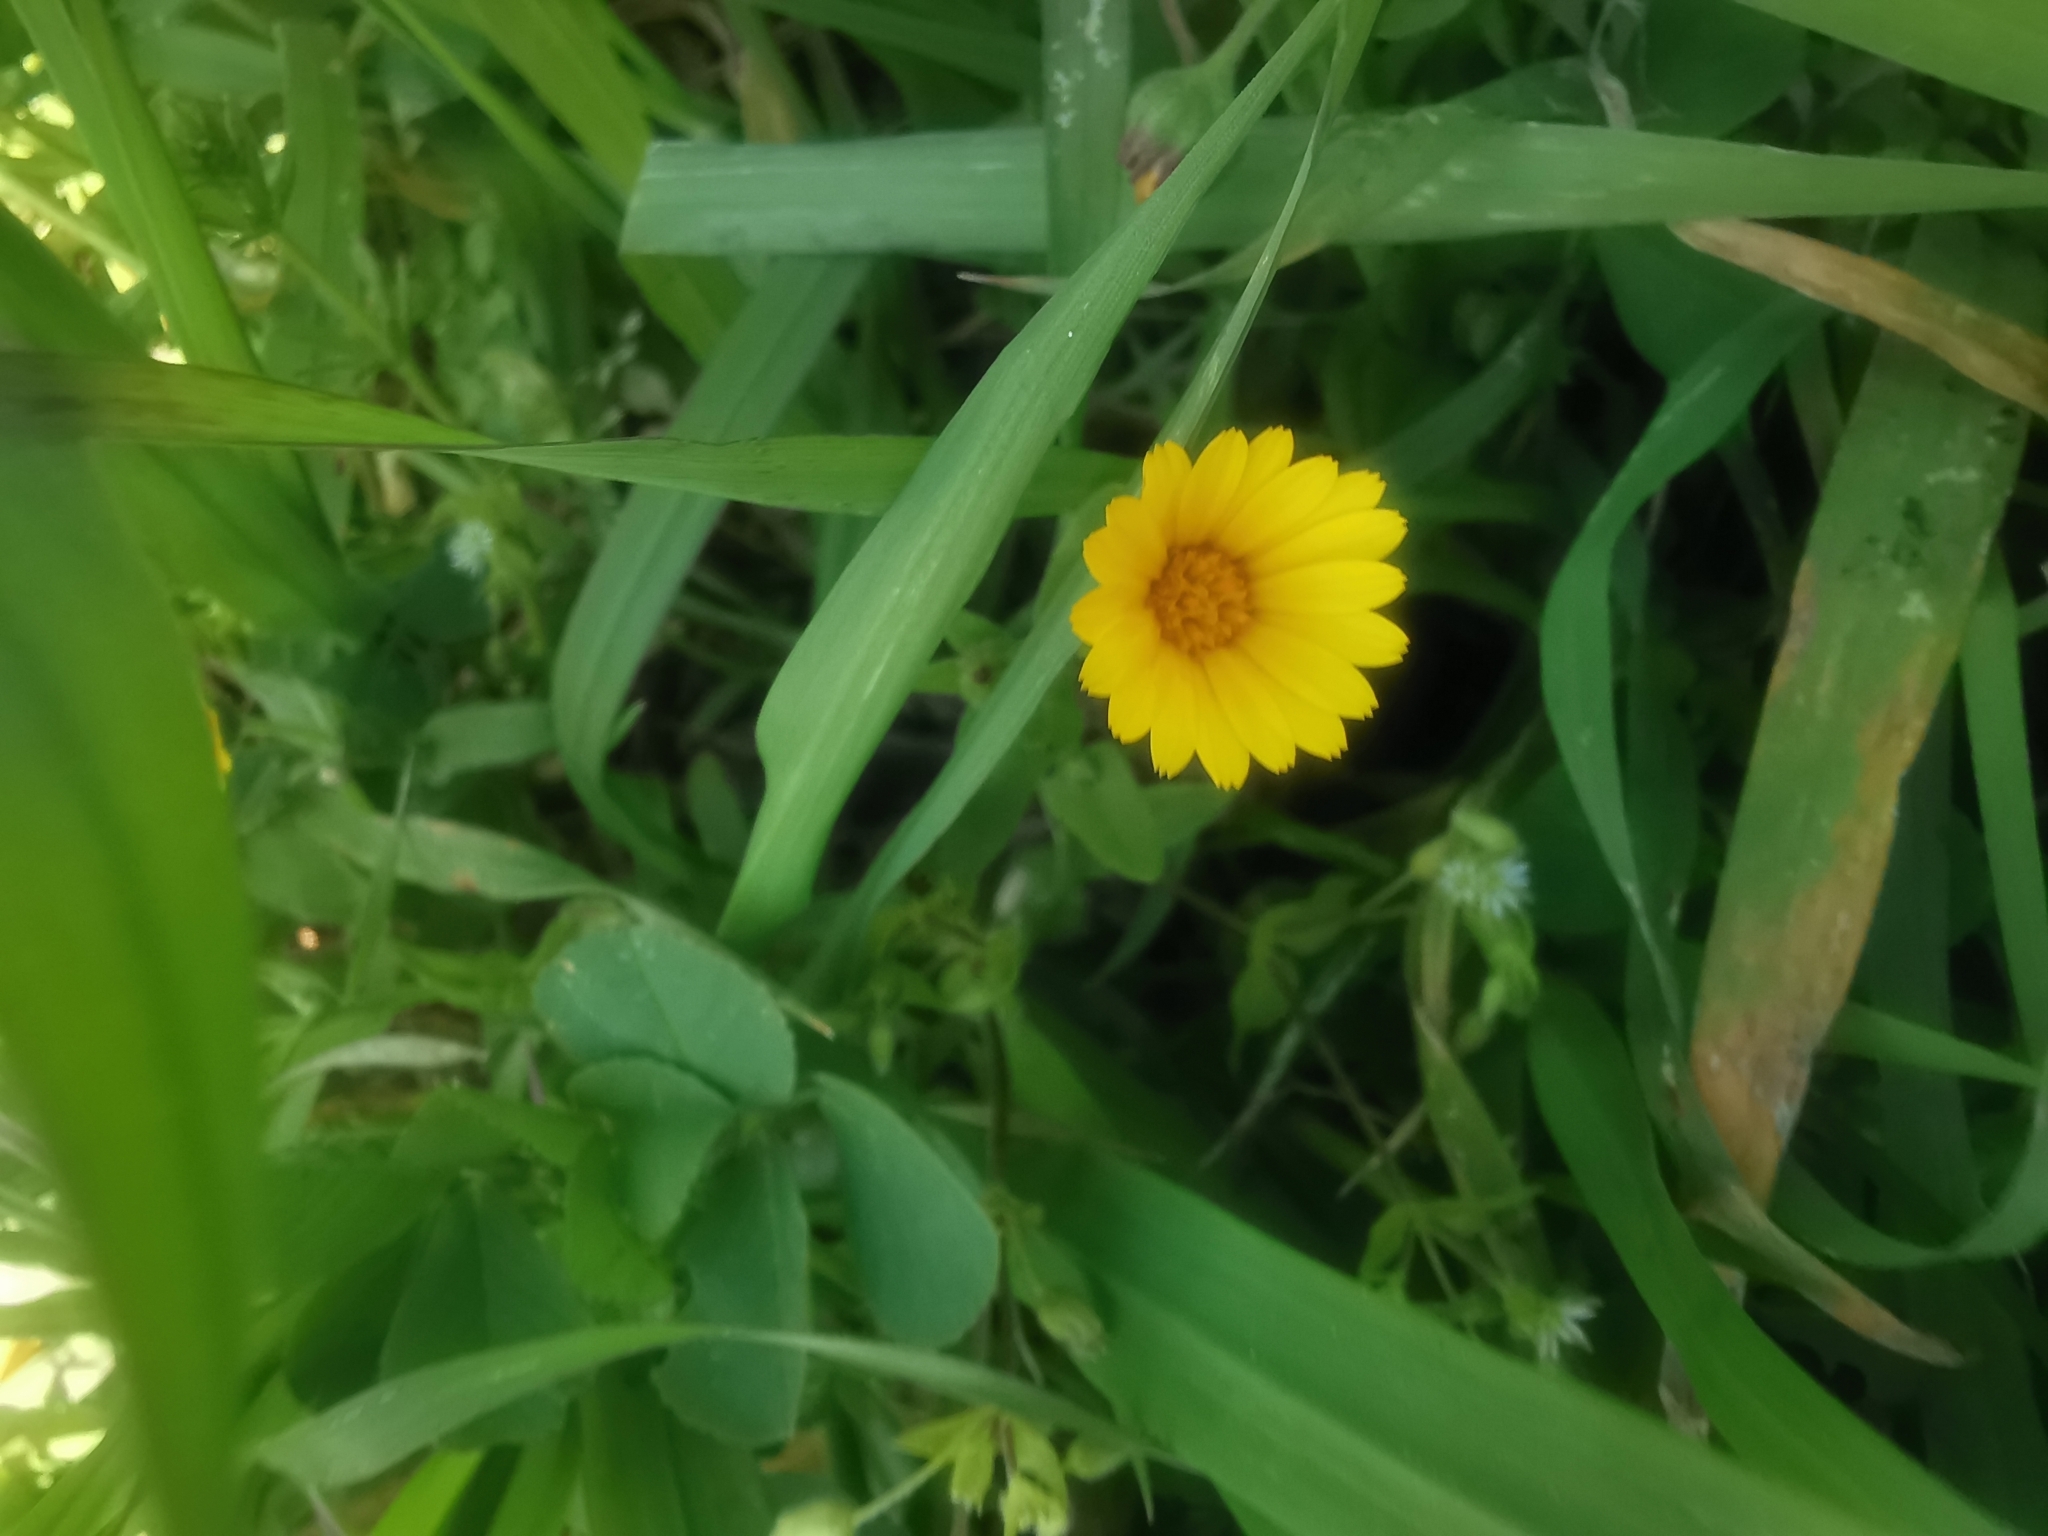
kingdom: Plantae
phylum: Tracheophyta
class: Magnoliopsida
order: Asterales
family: Asteraceae
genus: Calendula
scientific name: Calendula arvensis
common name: Field marigold
